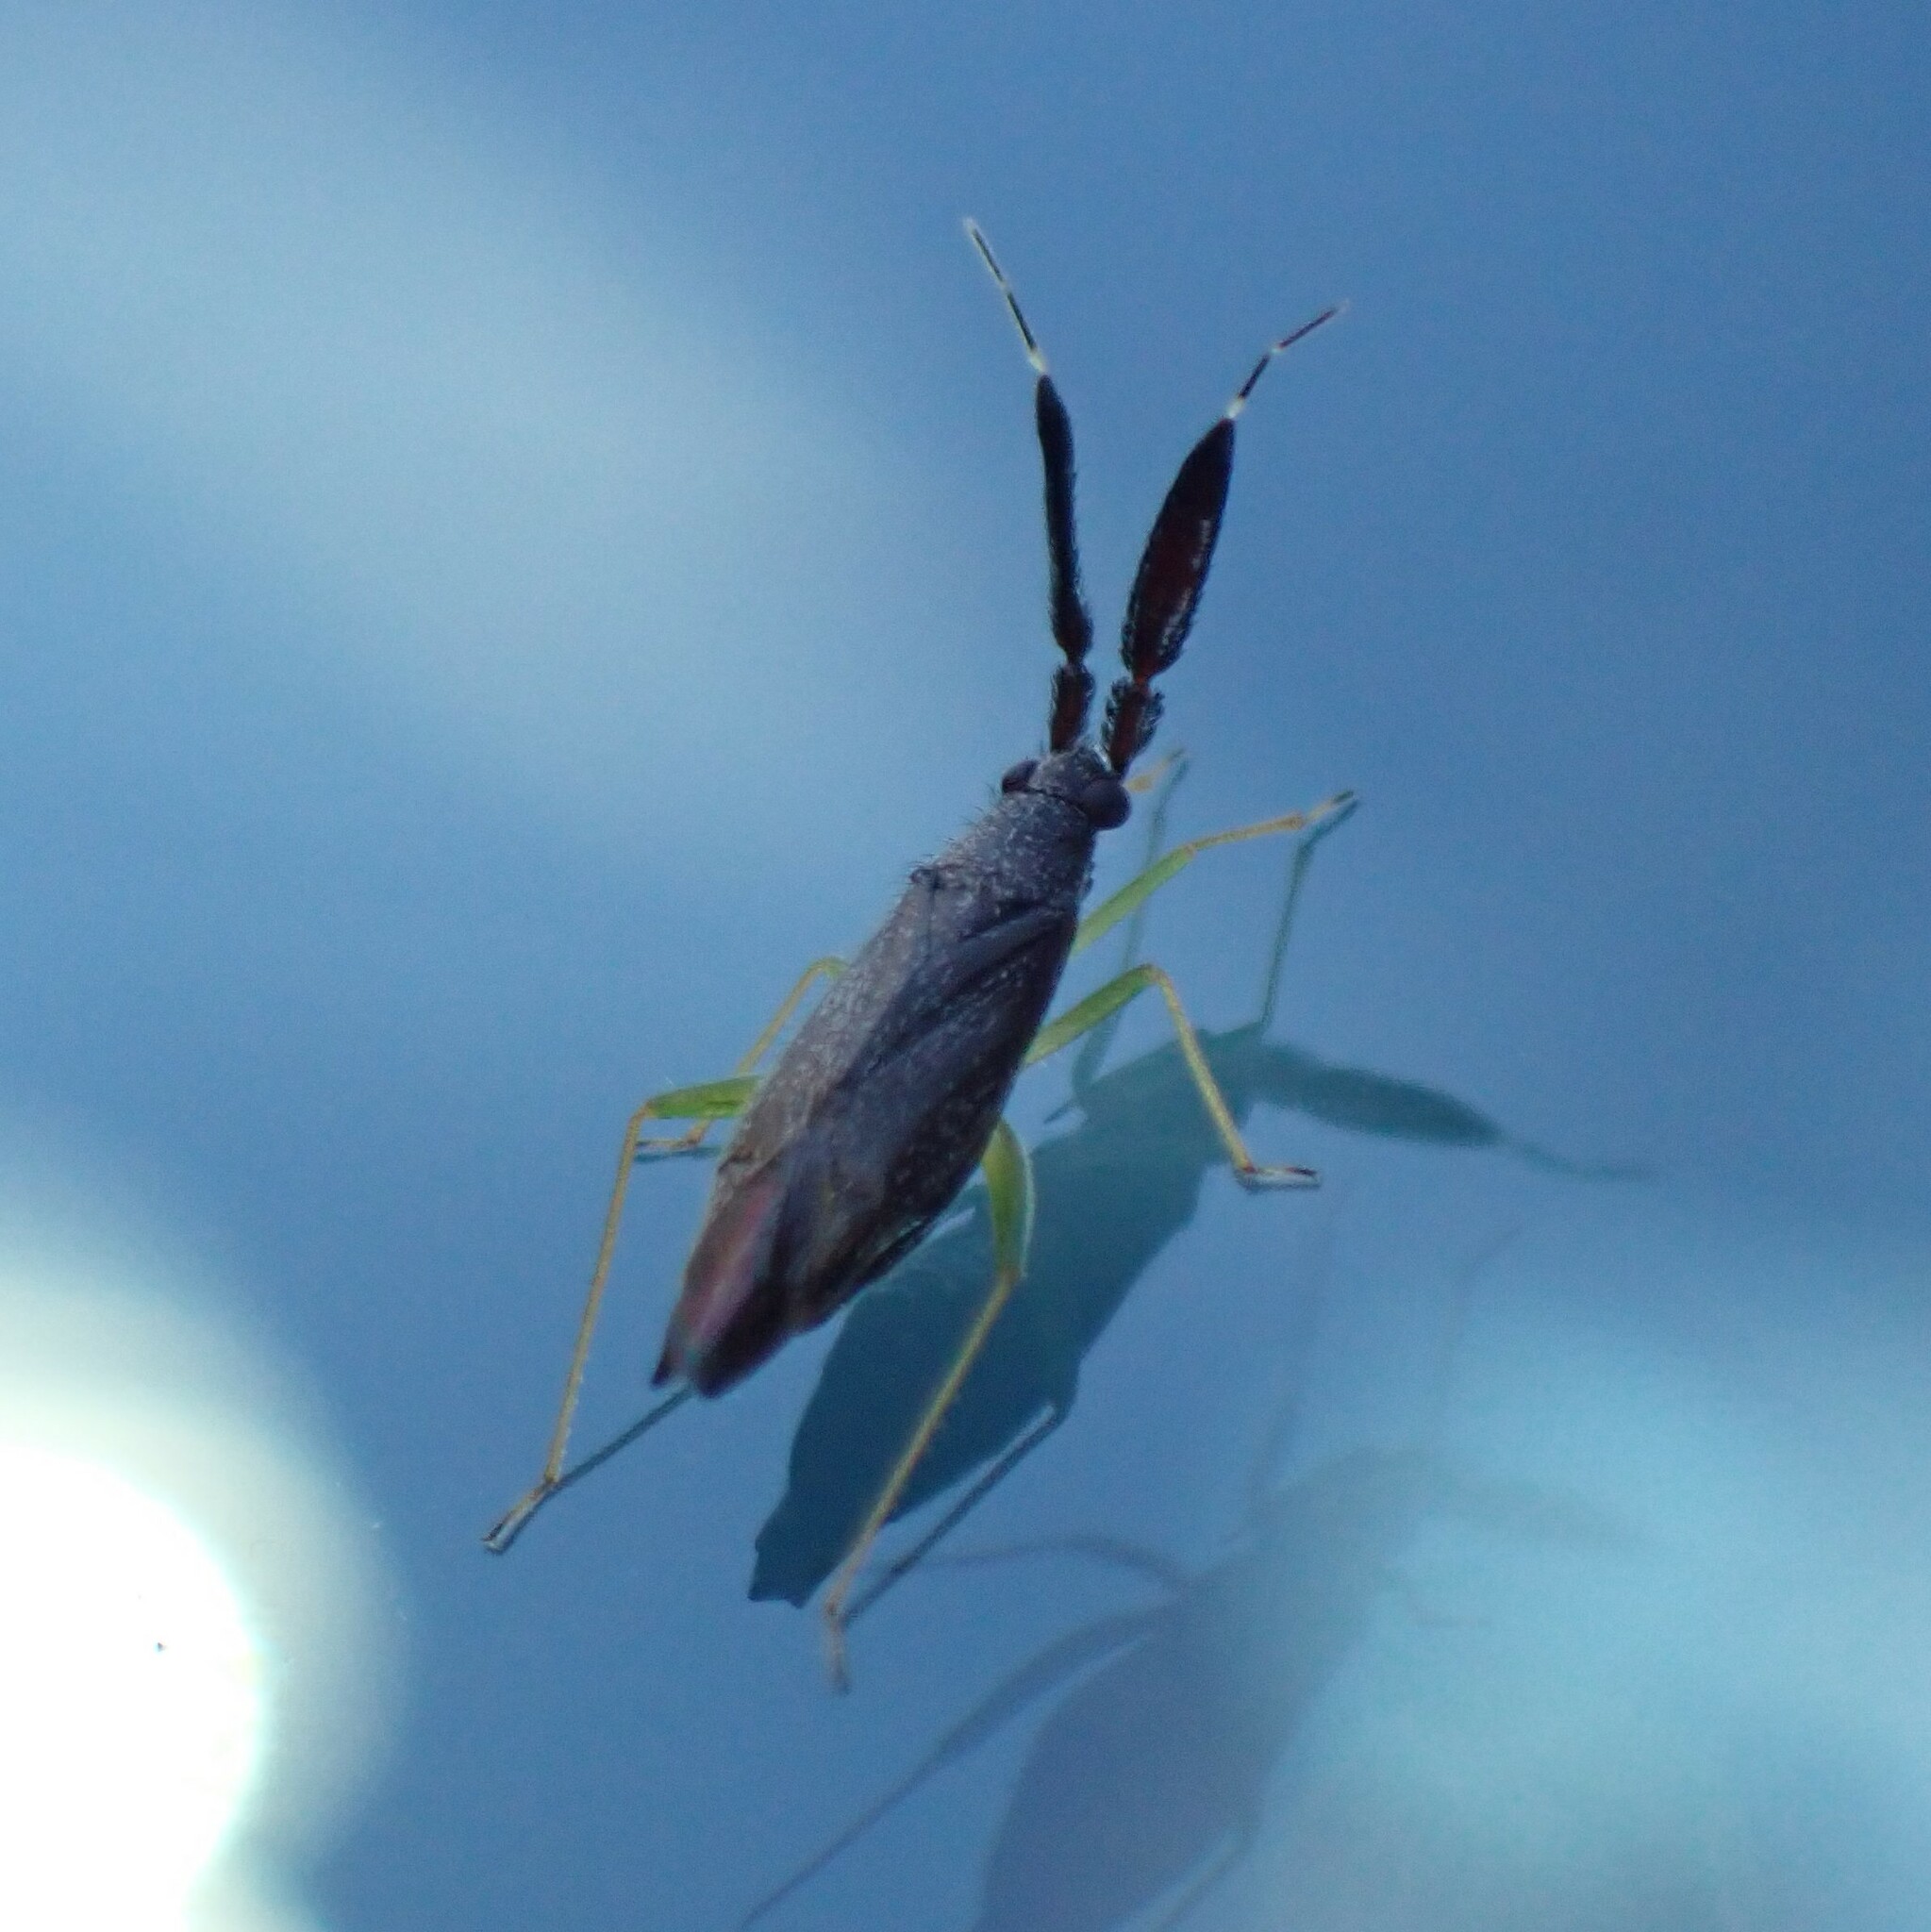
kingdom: Animalia
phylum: Arthropoda
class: Insecta
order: Hemiptera
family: Miridae
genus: Heterotoma
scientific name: Heterotoma planicornis
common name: Plant bug
